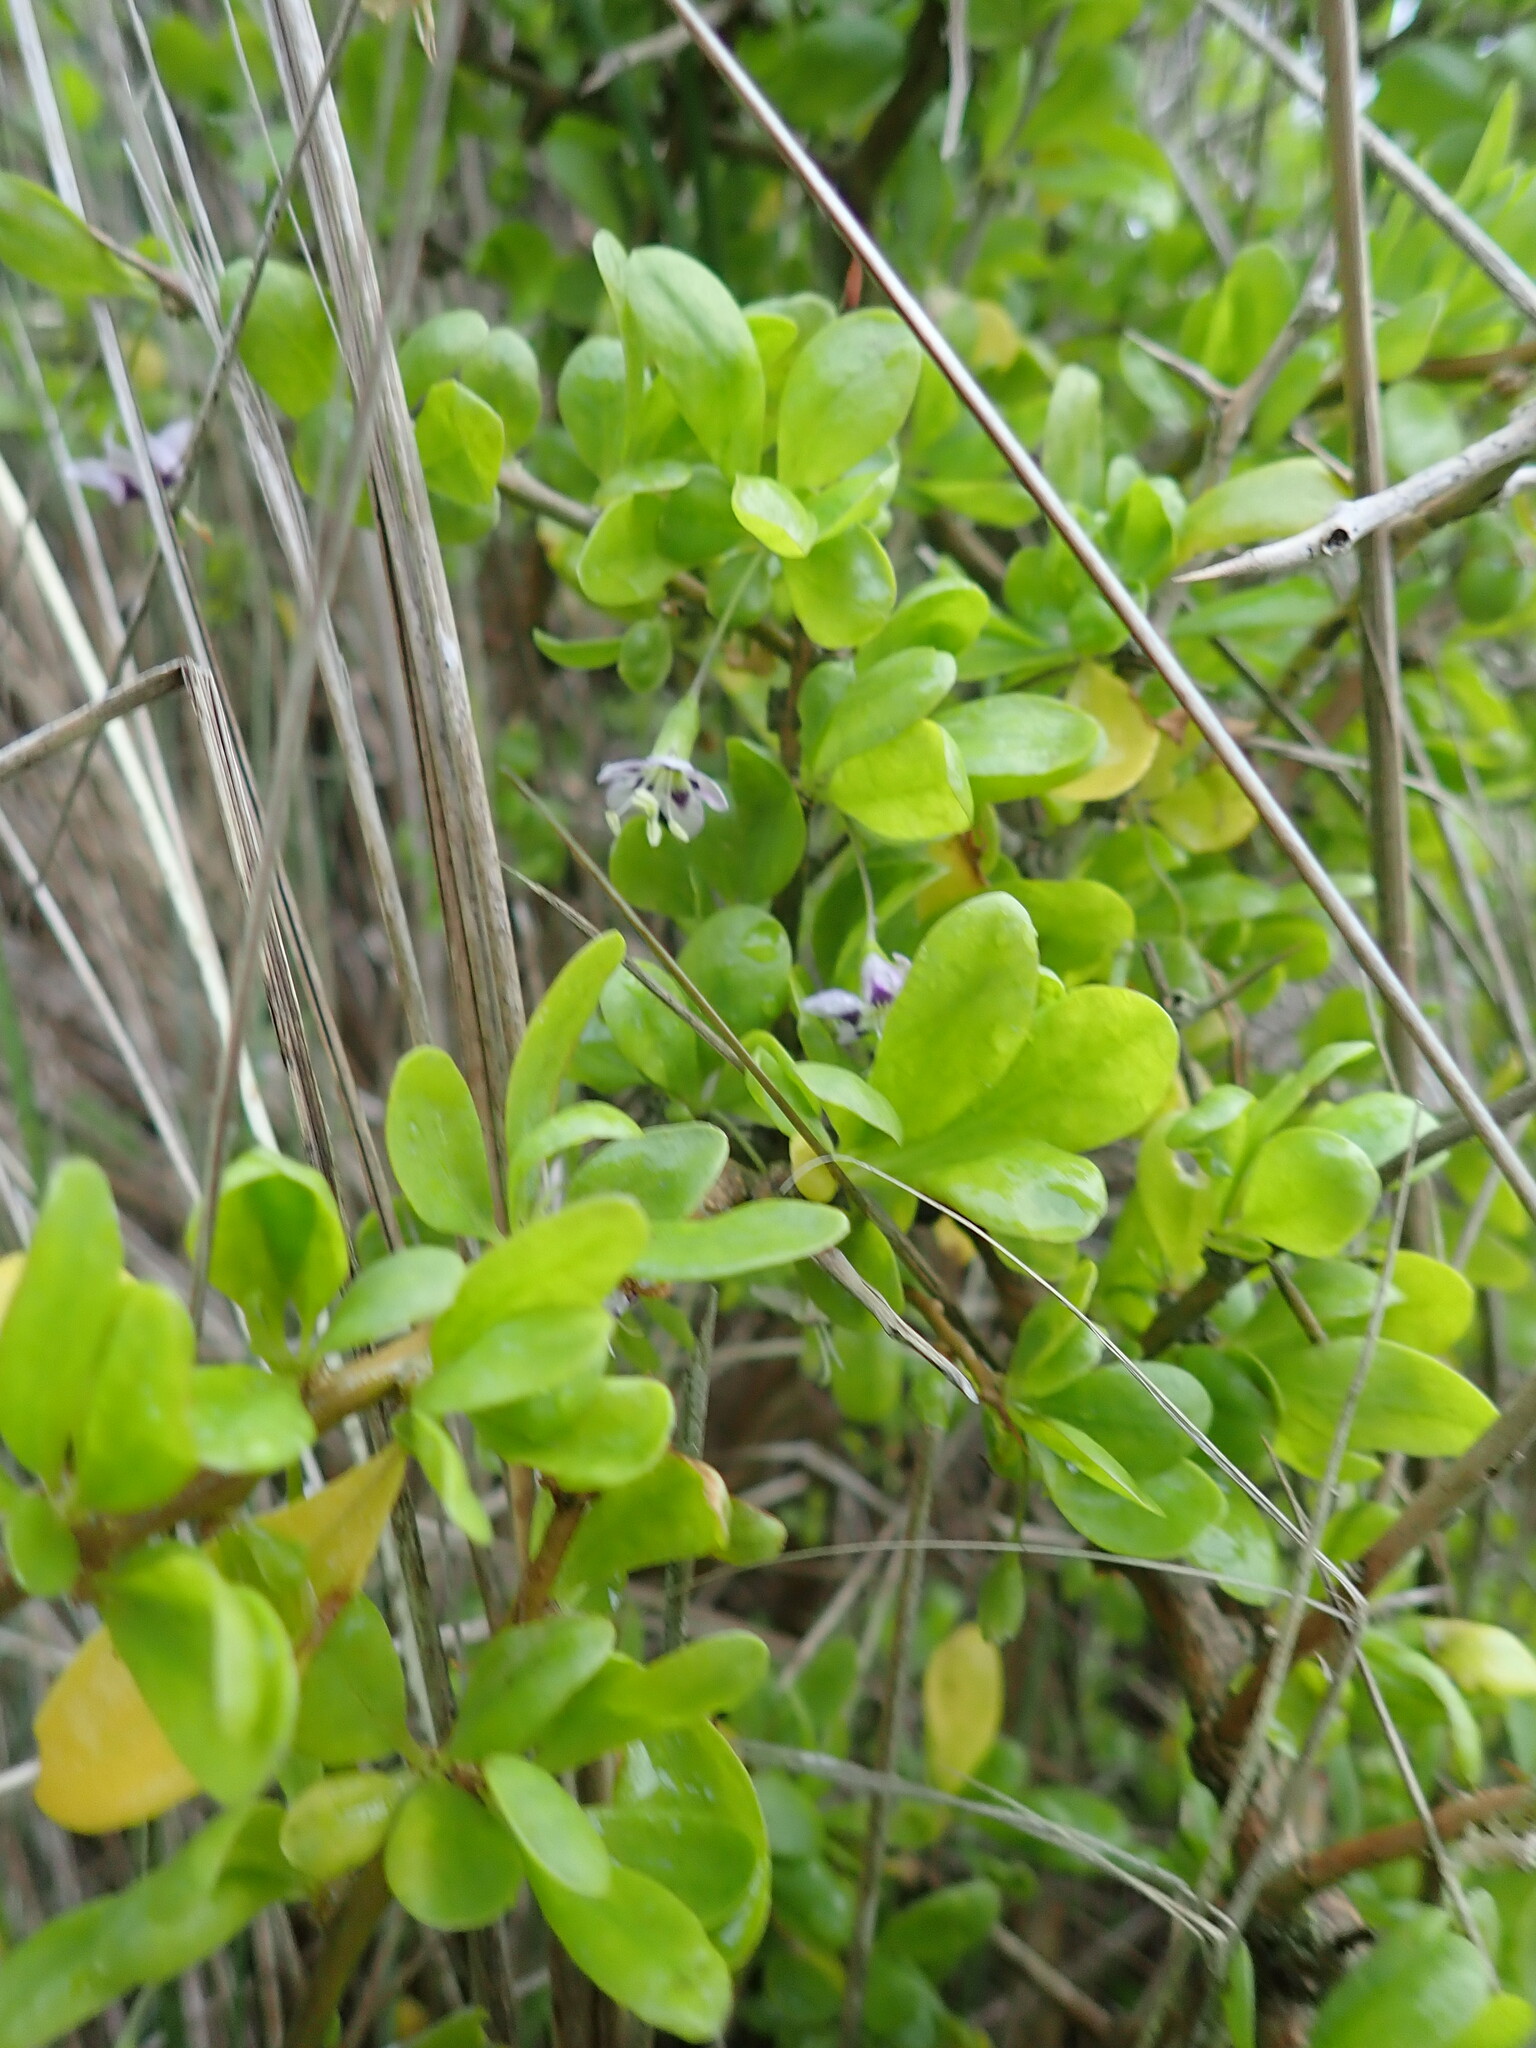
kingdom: Plantae
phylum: Tracheophyta
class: Magnoliopsida
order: Solanales
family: Solanaceae
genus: Lycium
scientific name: Lycium ferocissimum
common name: African boxthorn
